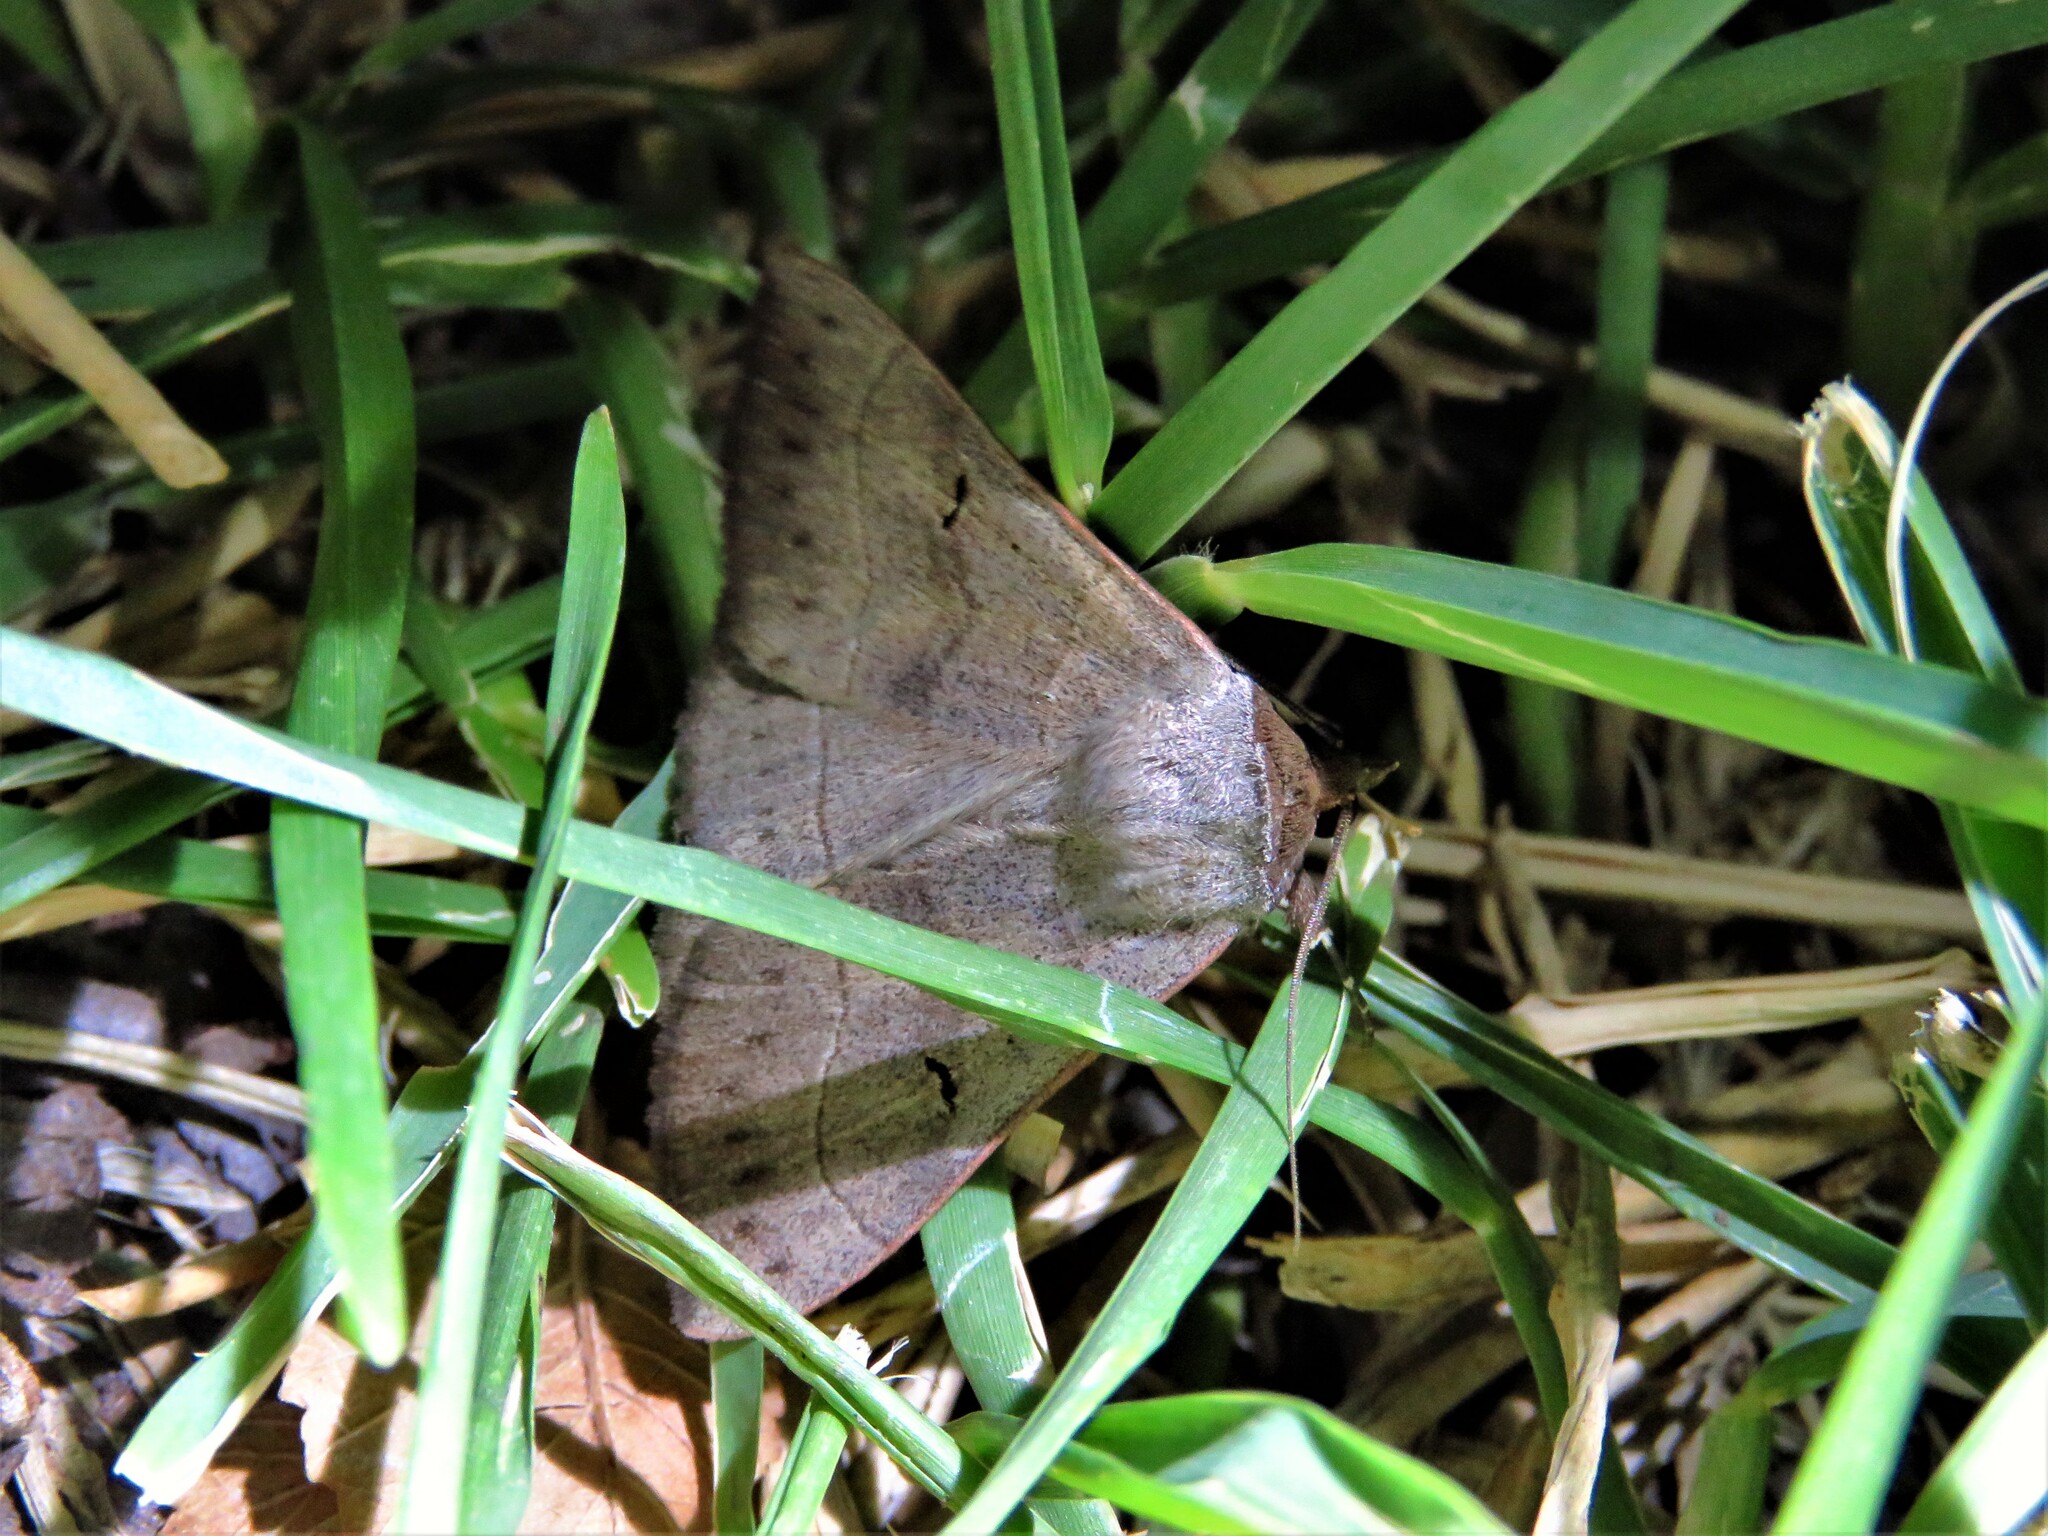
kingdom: Animalia
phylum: Arthropoda
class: Insecta
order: Lepidoptera
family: Erebidae
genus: Panopoda
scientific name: Panopoda carneicosta
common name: Brown panopoda moth
